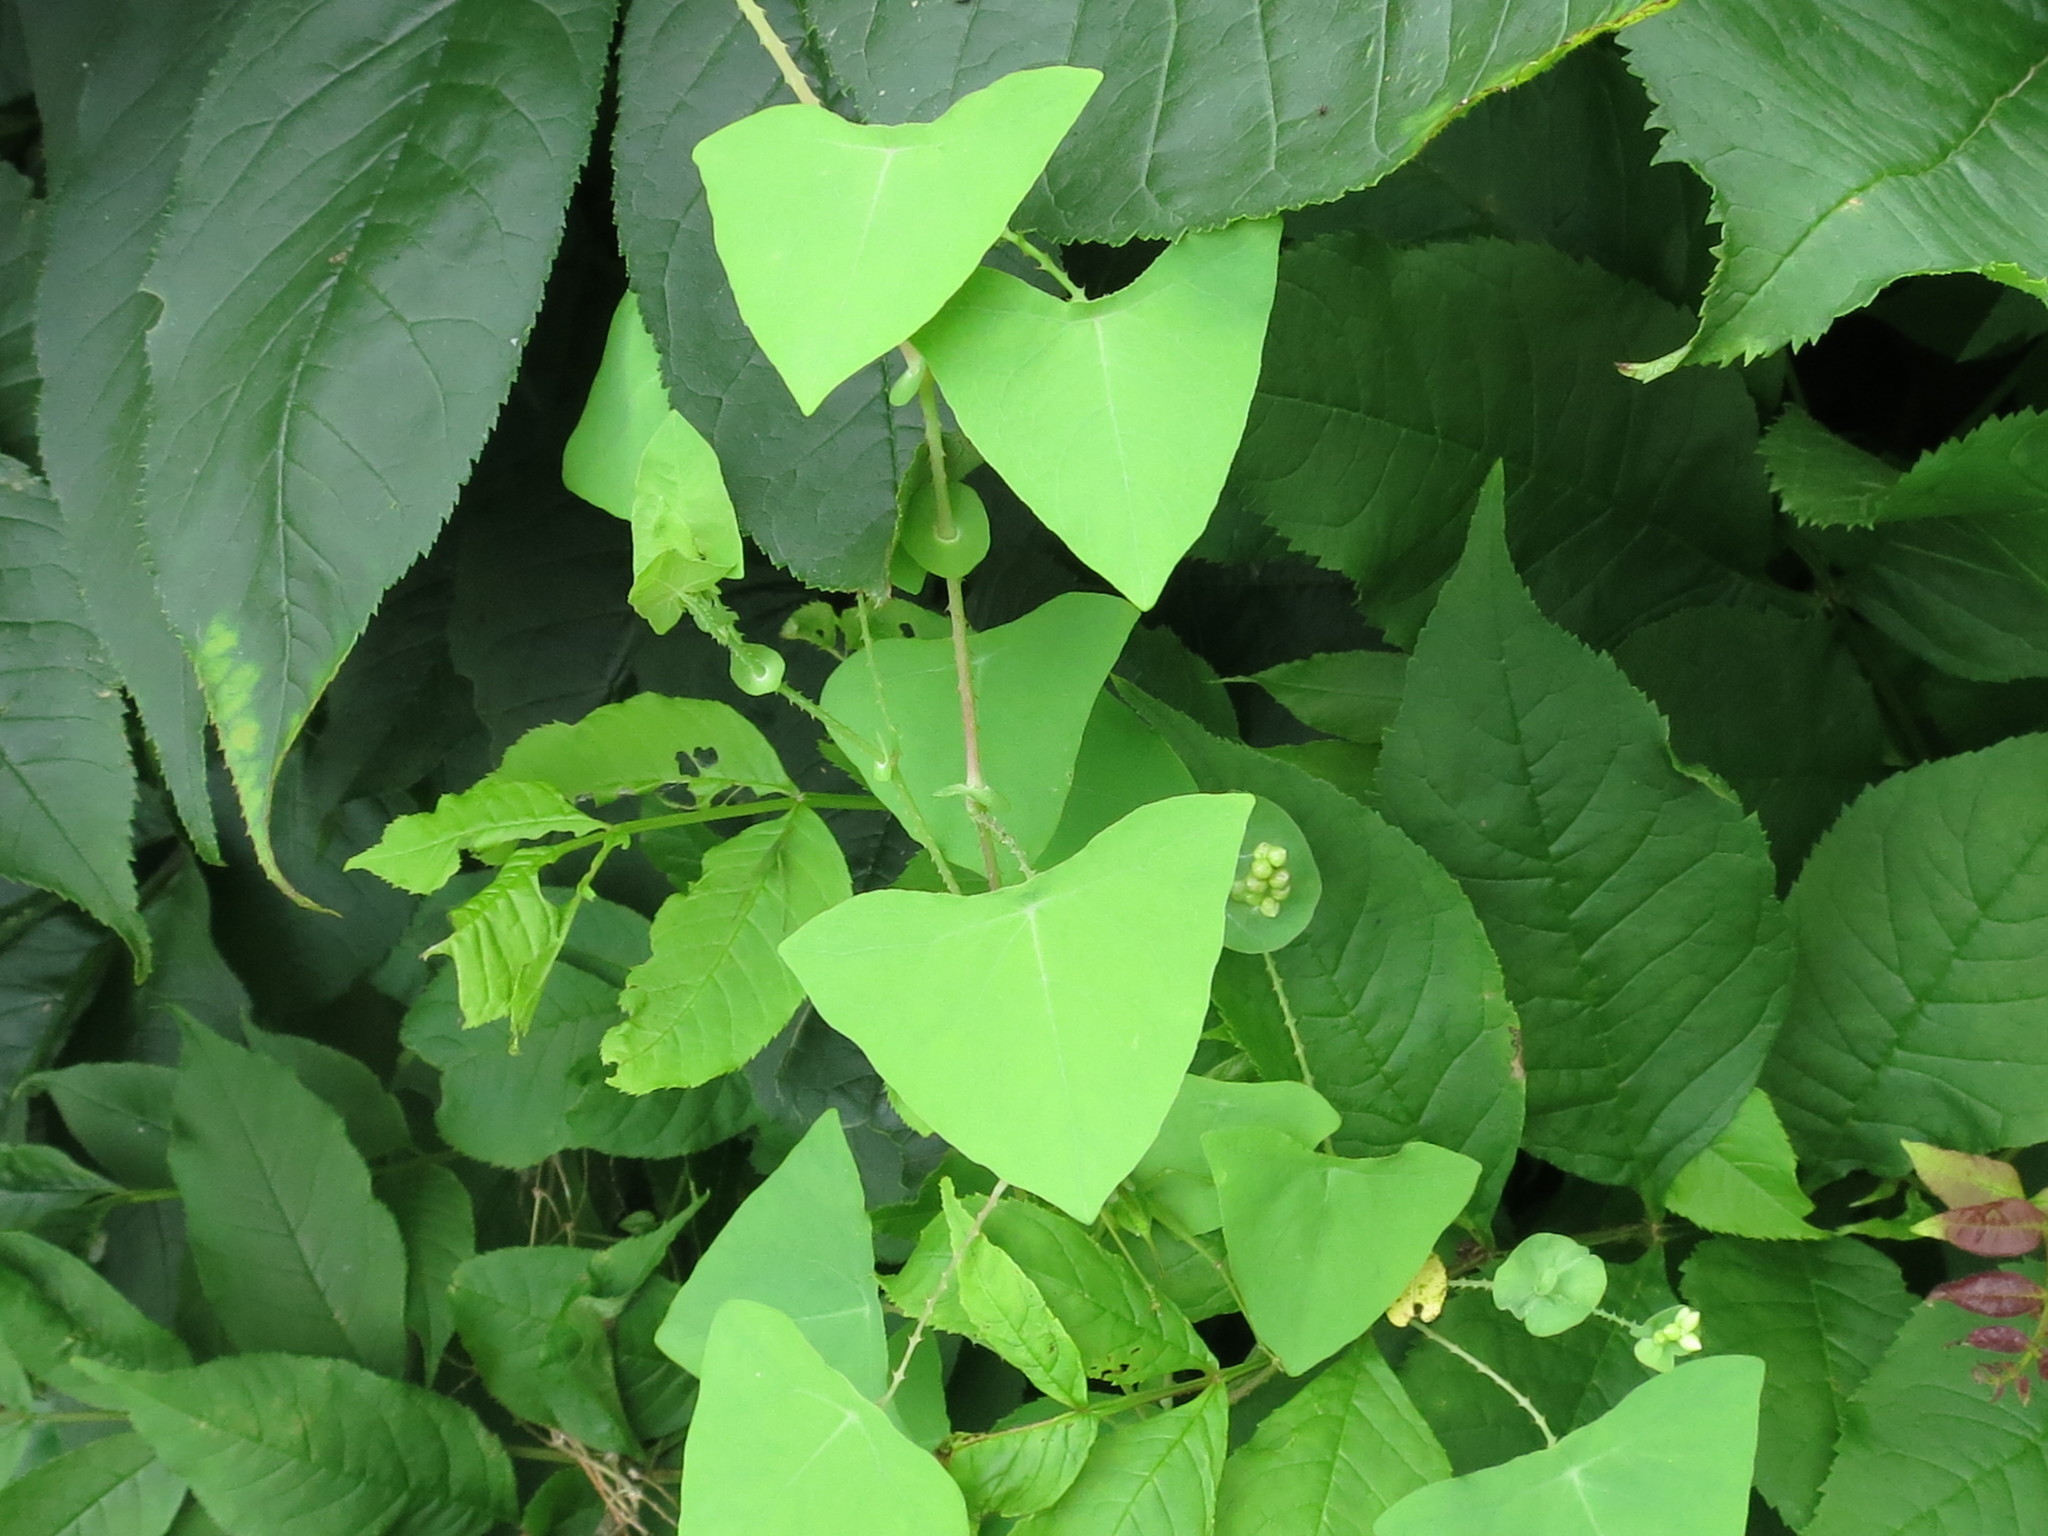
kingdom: Plantae
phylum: Tracheophyta
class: Magnoliopsida
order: Caryophyllales
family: Polygonaceae
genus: Persicaria
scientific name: Persicaria perfoliata
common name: Asiatic tearthumb
